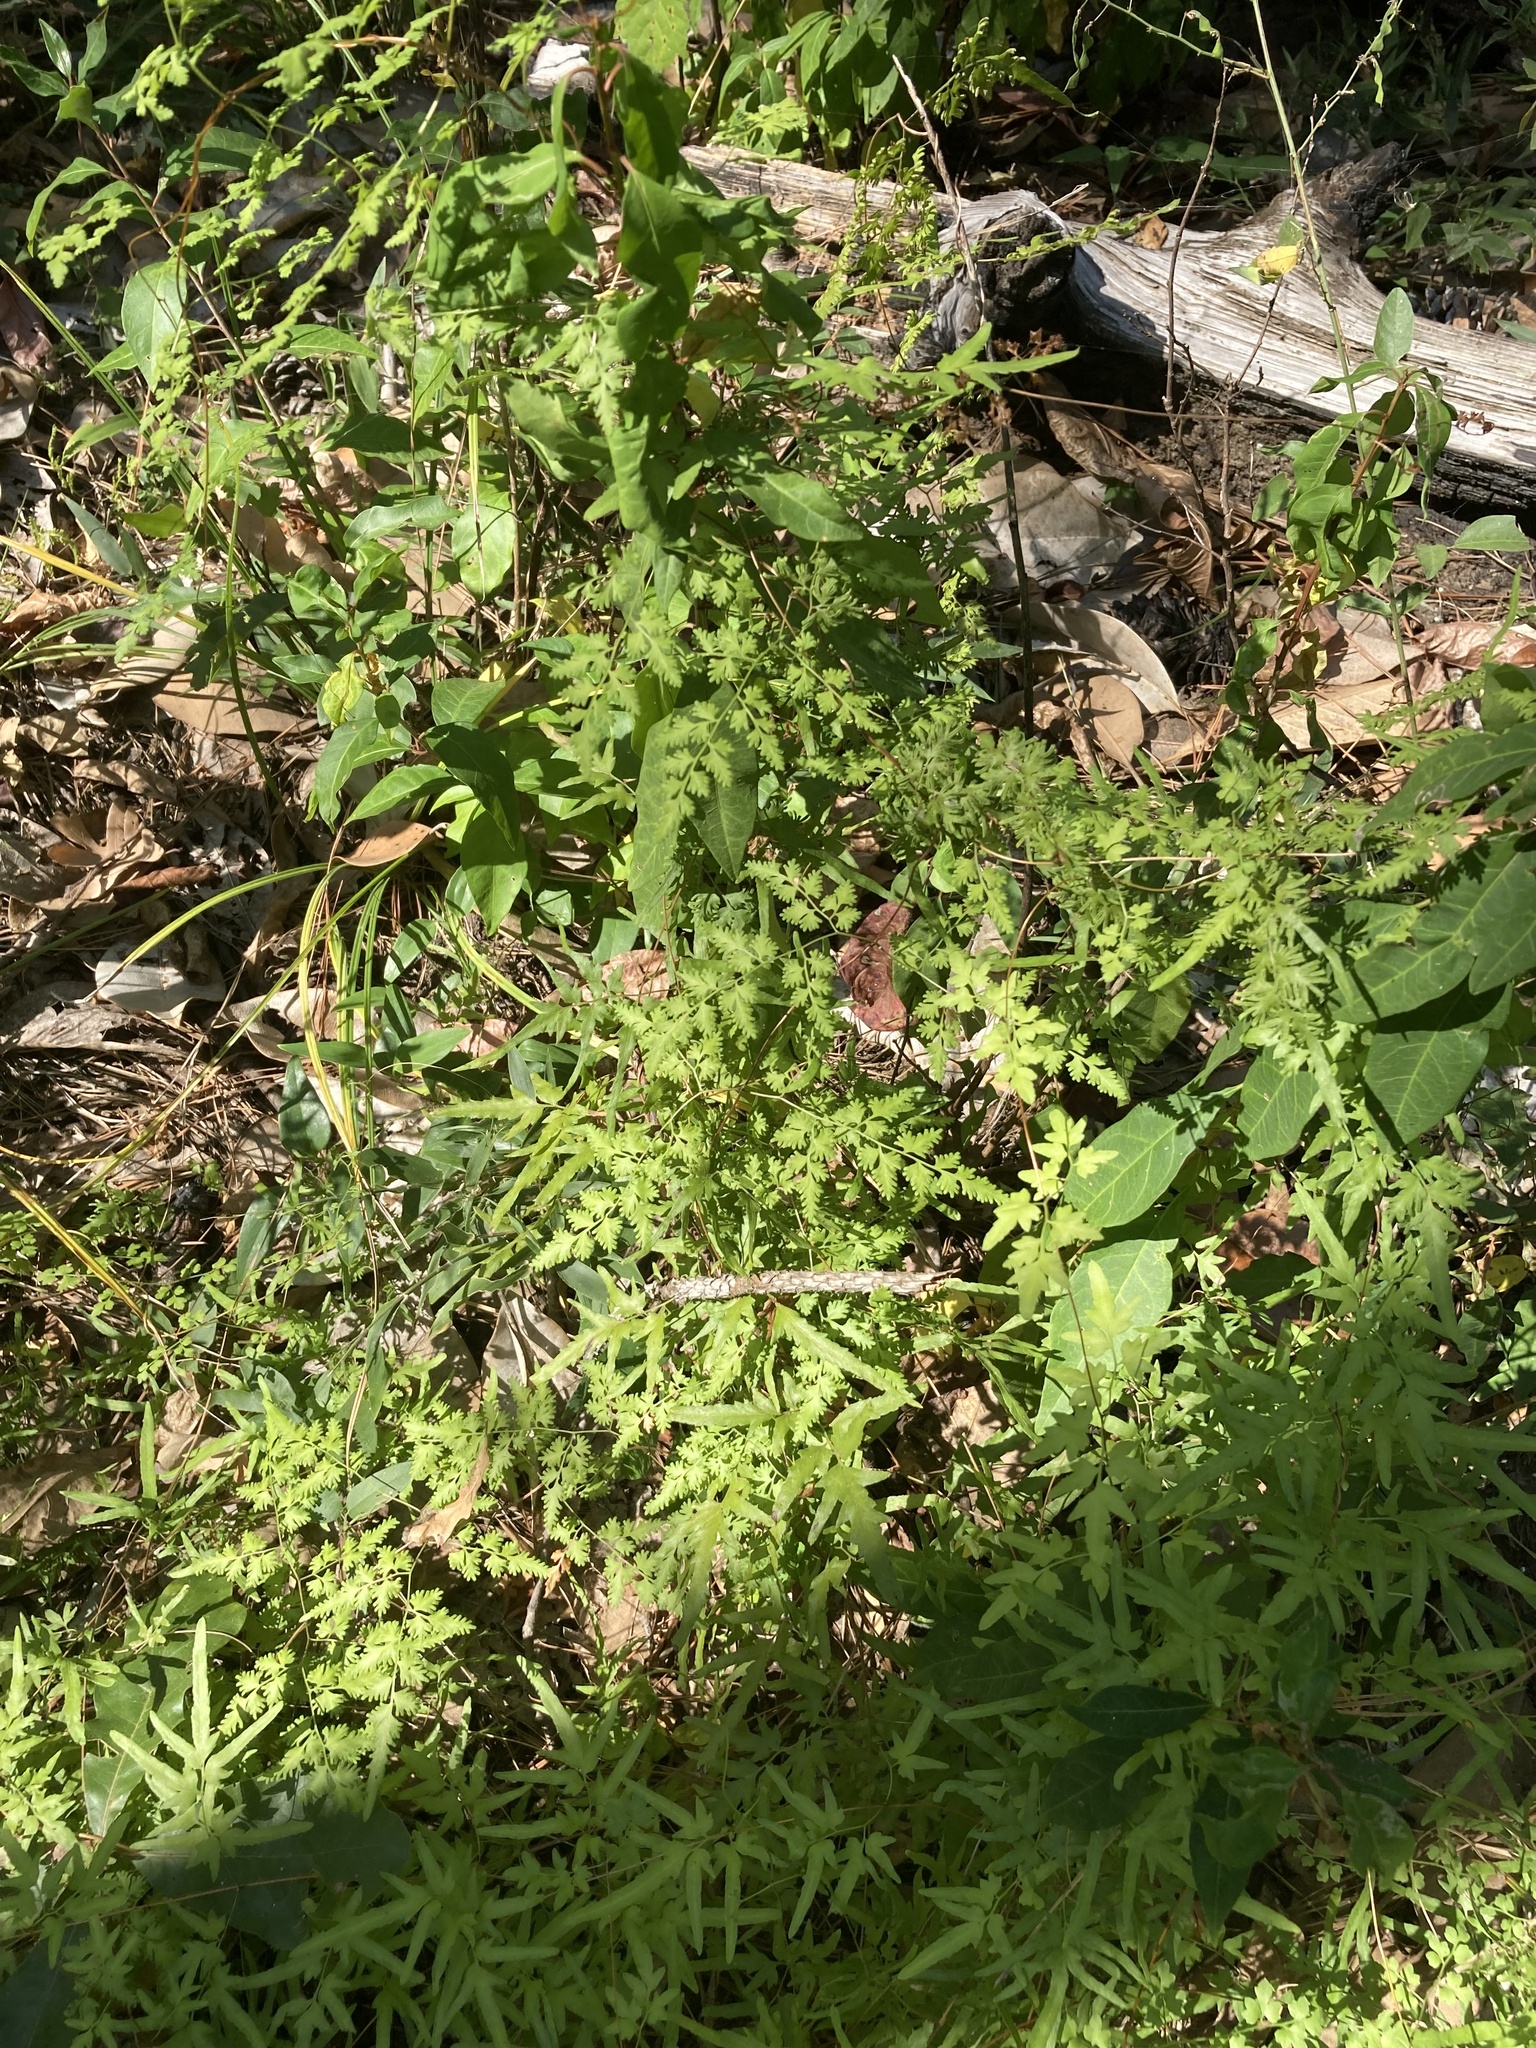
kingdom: Plantae
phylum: Tracheophyta
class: Polypodiopsida
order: Schizaeales
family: Lygodiaceae
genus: Lygodium
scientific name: Lygodium japonicum
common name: Japanese climbing fern
